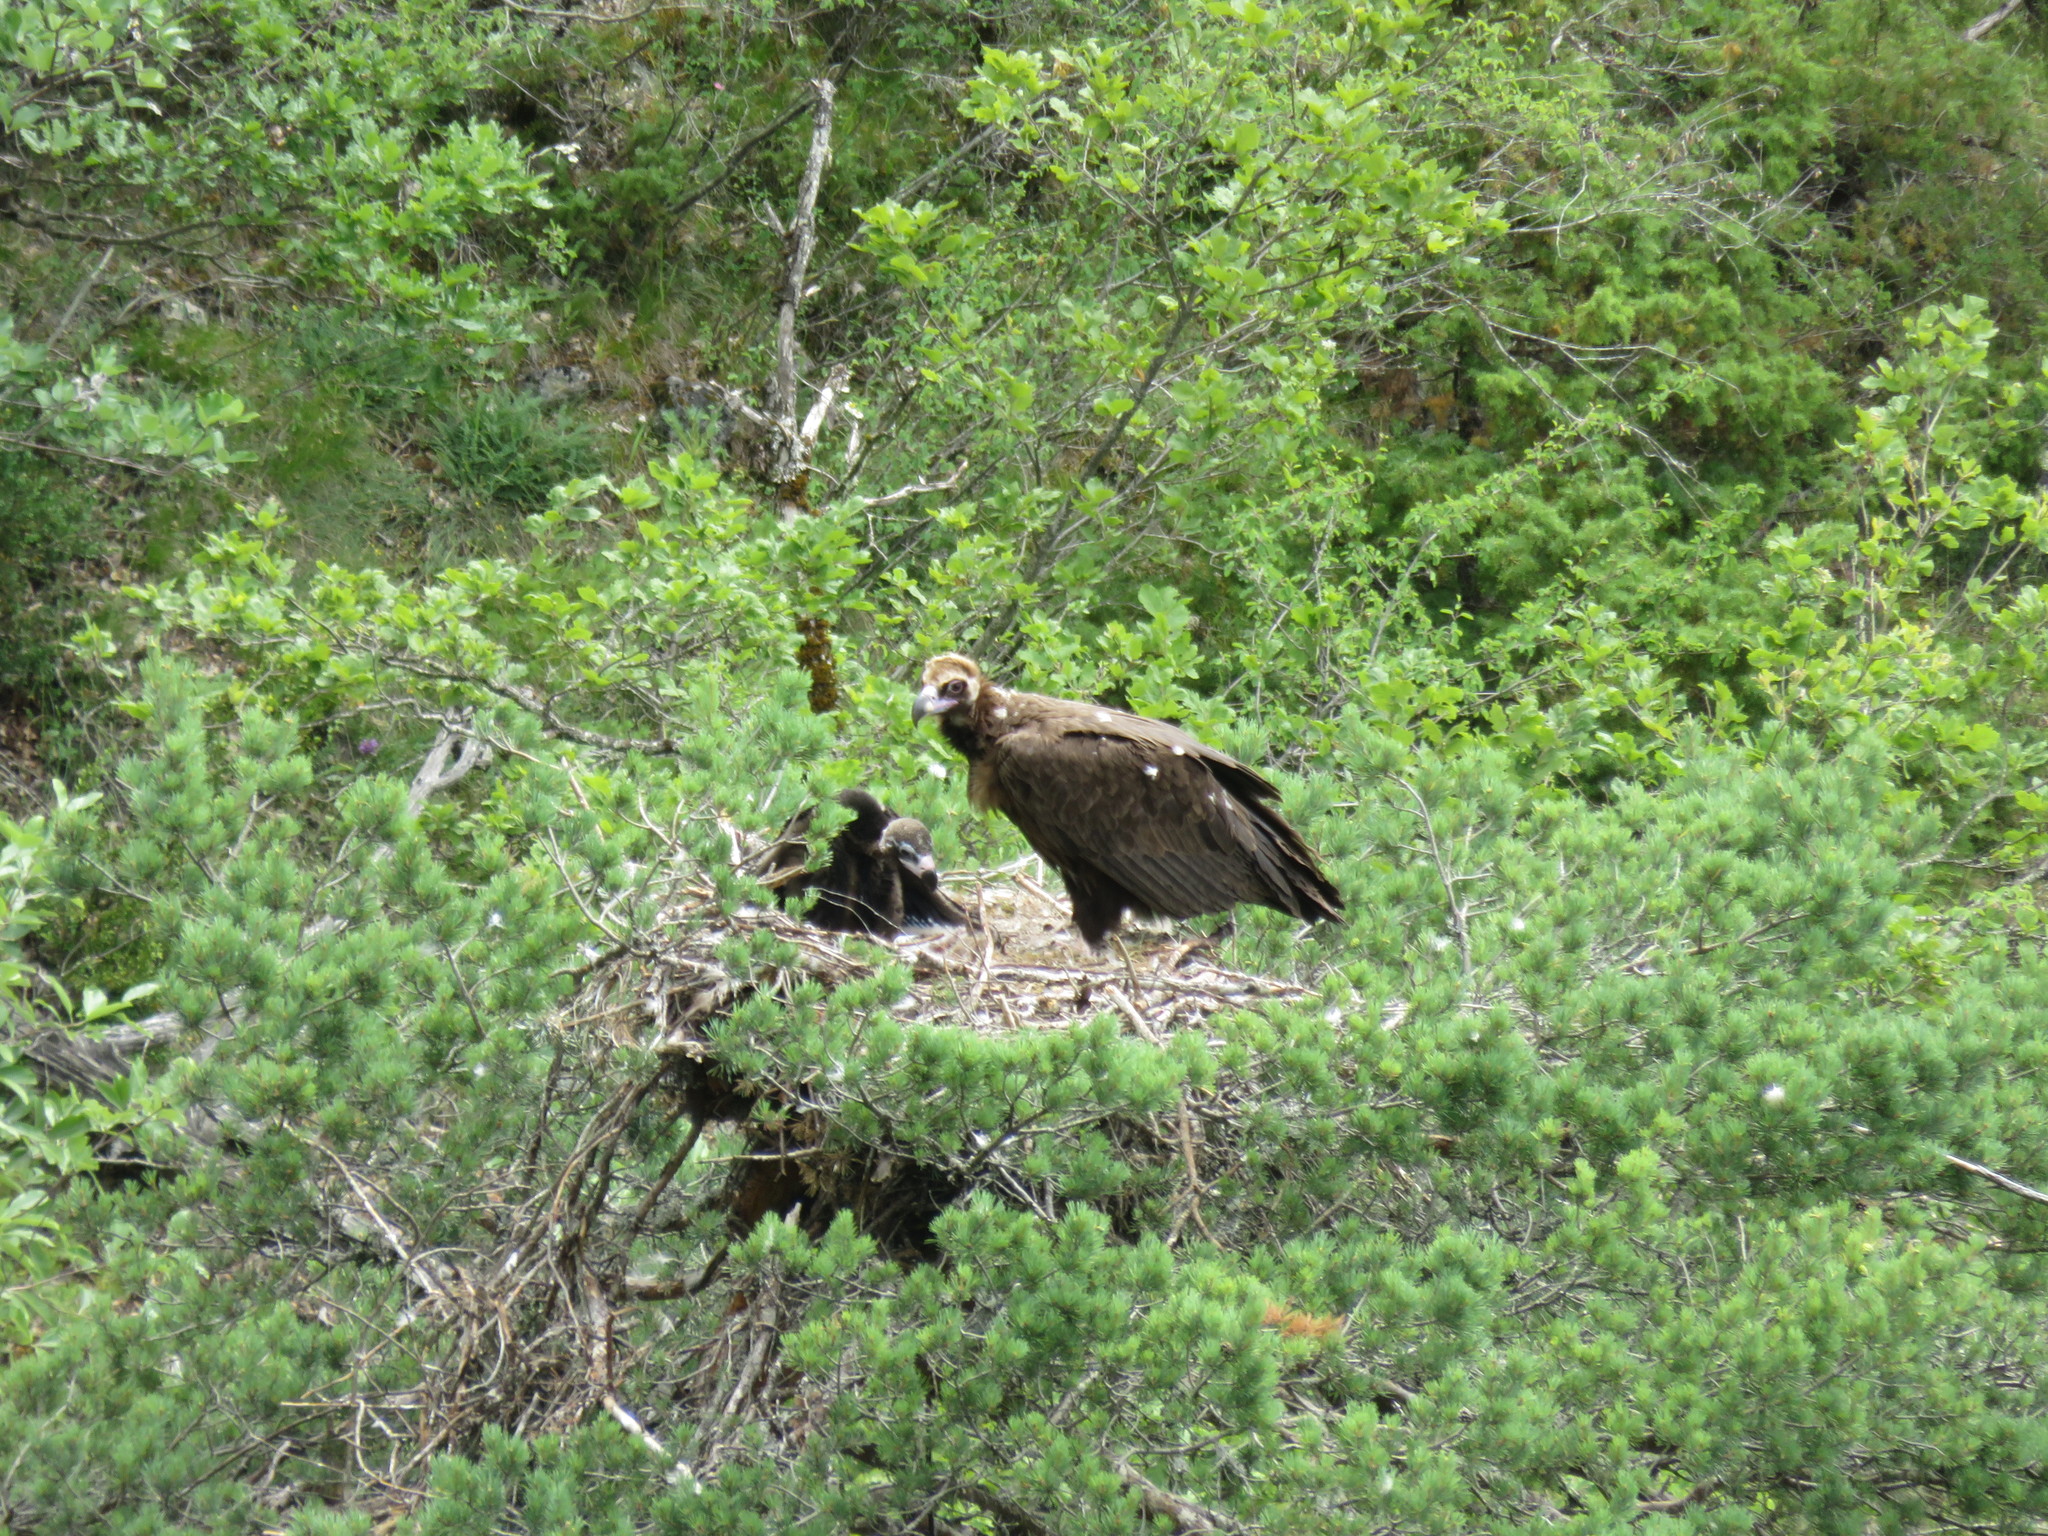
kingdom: Animalia
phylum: Chordata
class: Aves
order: Accipitriformes
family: Accipitridae
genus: Aegypius
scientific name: Aegypius monachus
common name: Cinereous vulture
